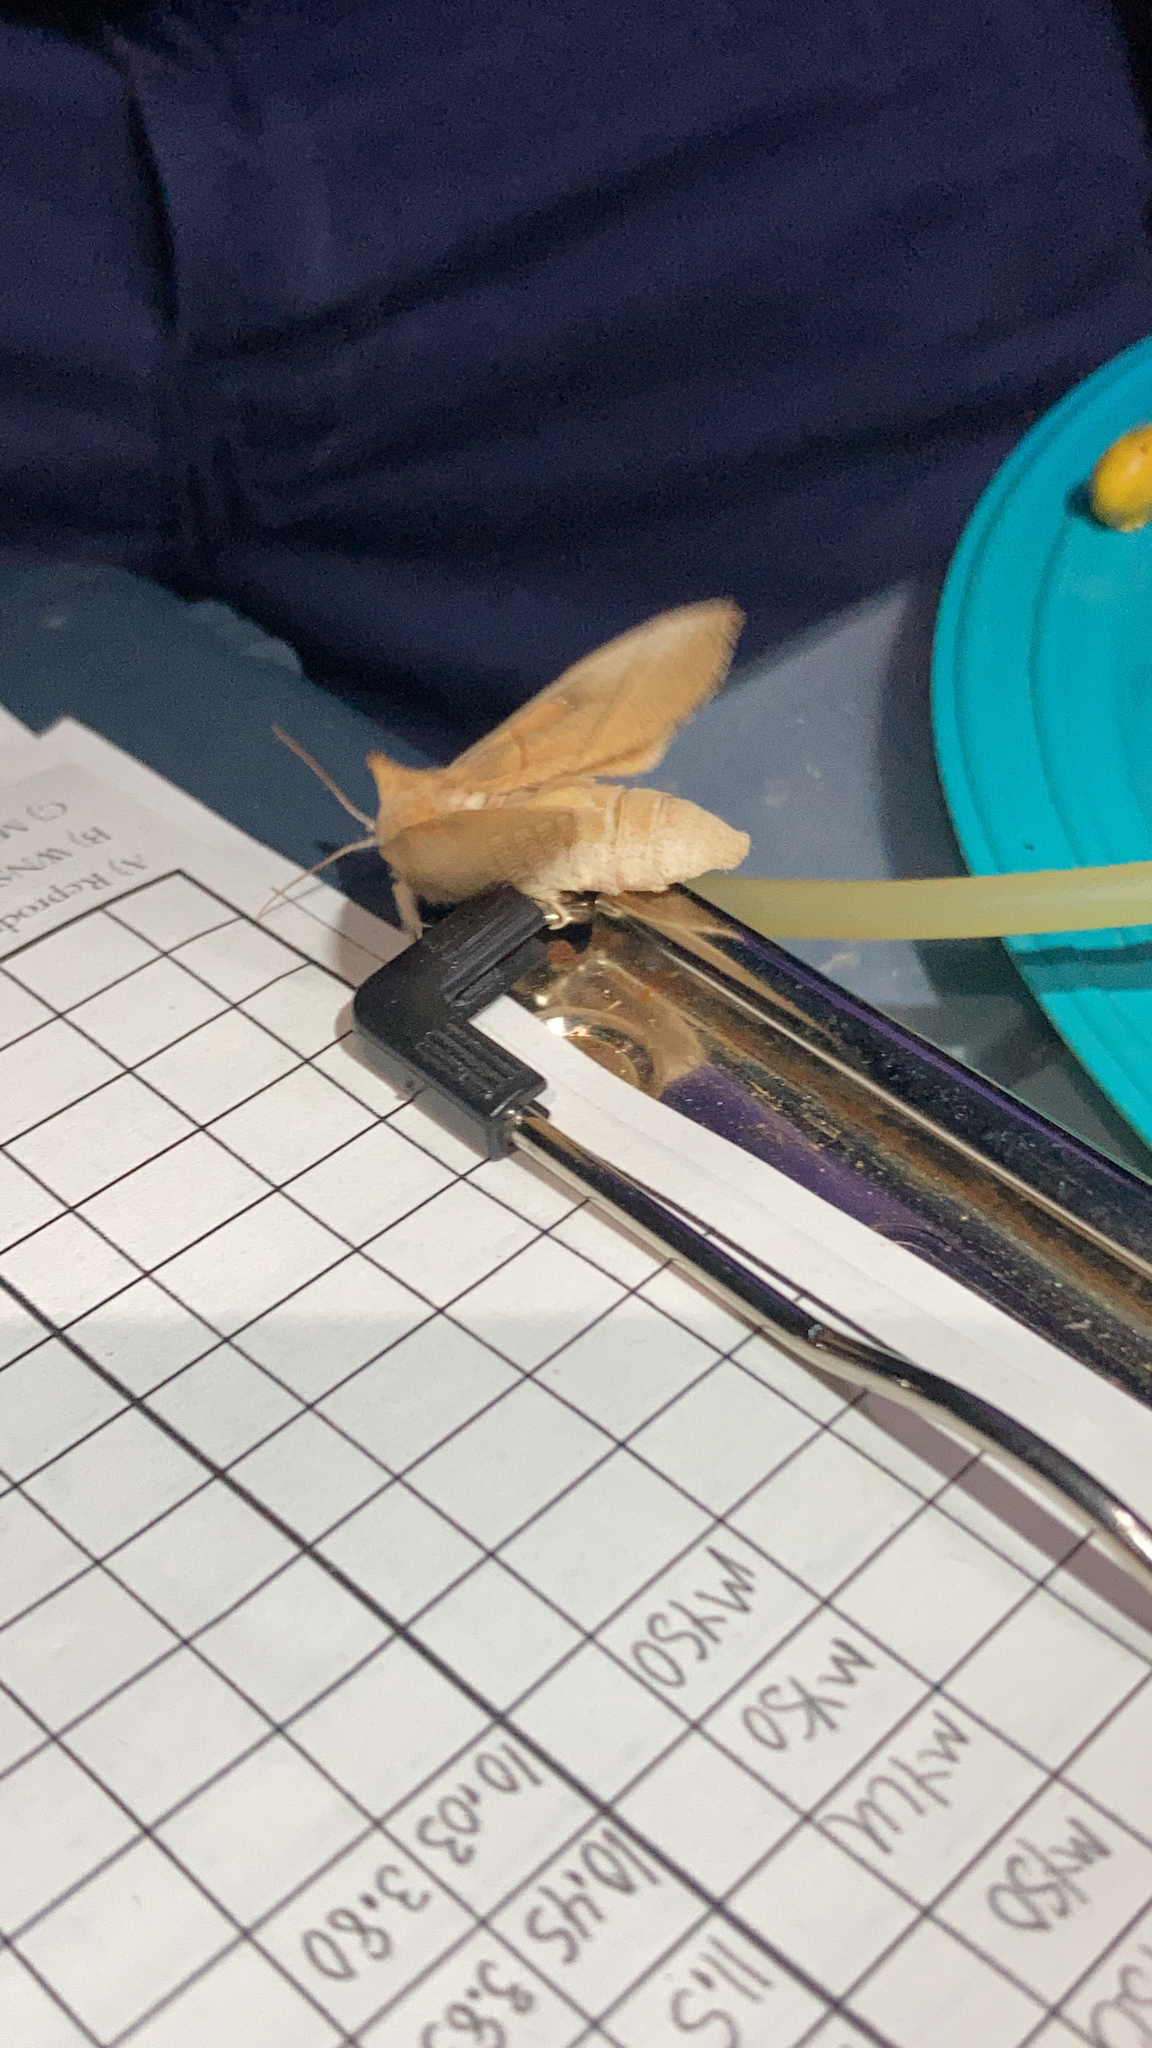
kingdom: Animalia
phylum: Arthropoda
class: Insecta
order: Lepidoptera
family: Notodontidae
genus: Nadata
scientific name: Nadata gibbosa
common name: White-dotted prominent
